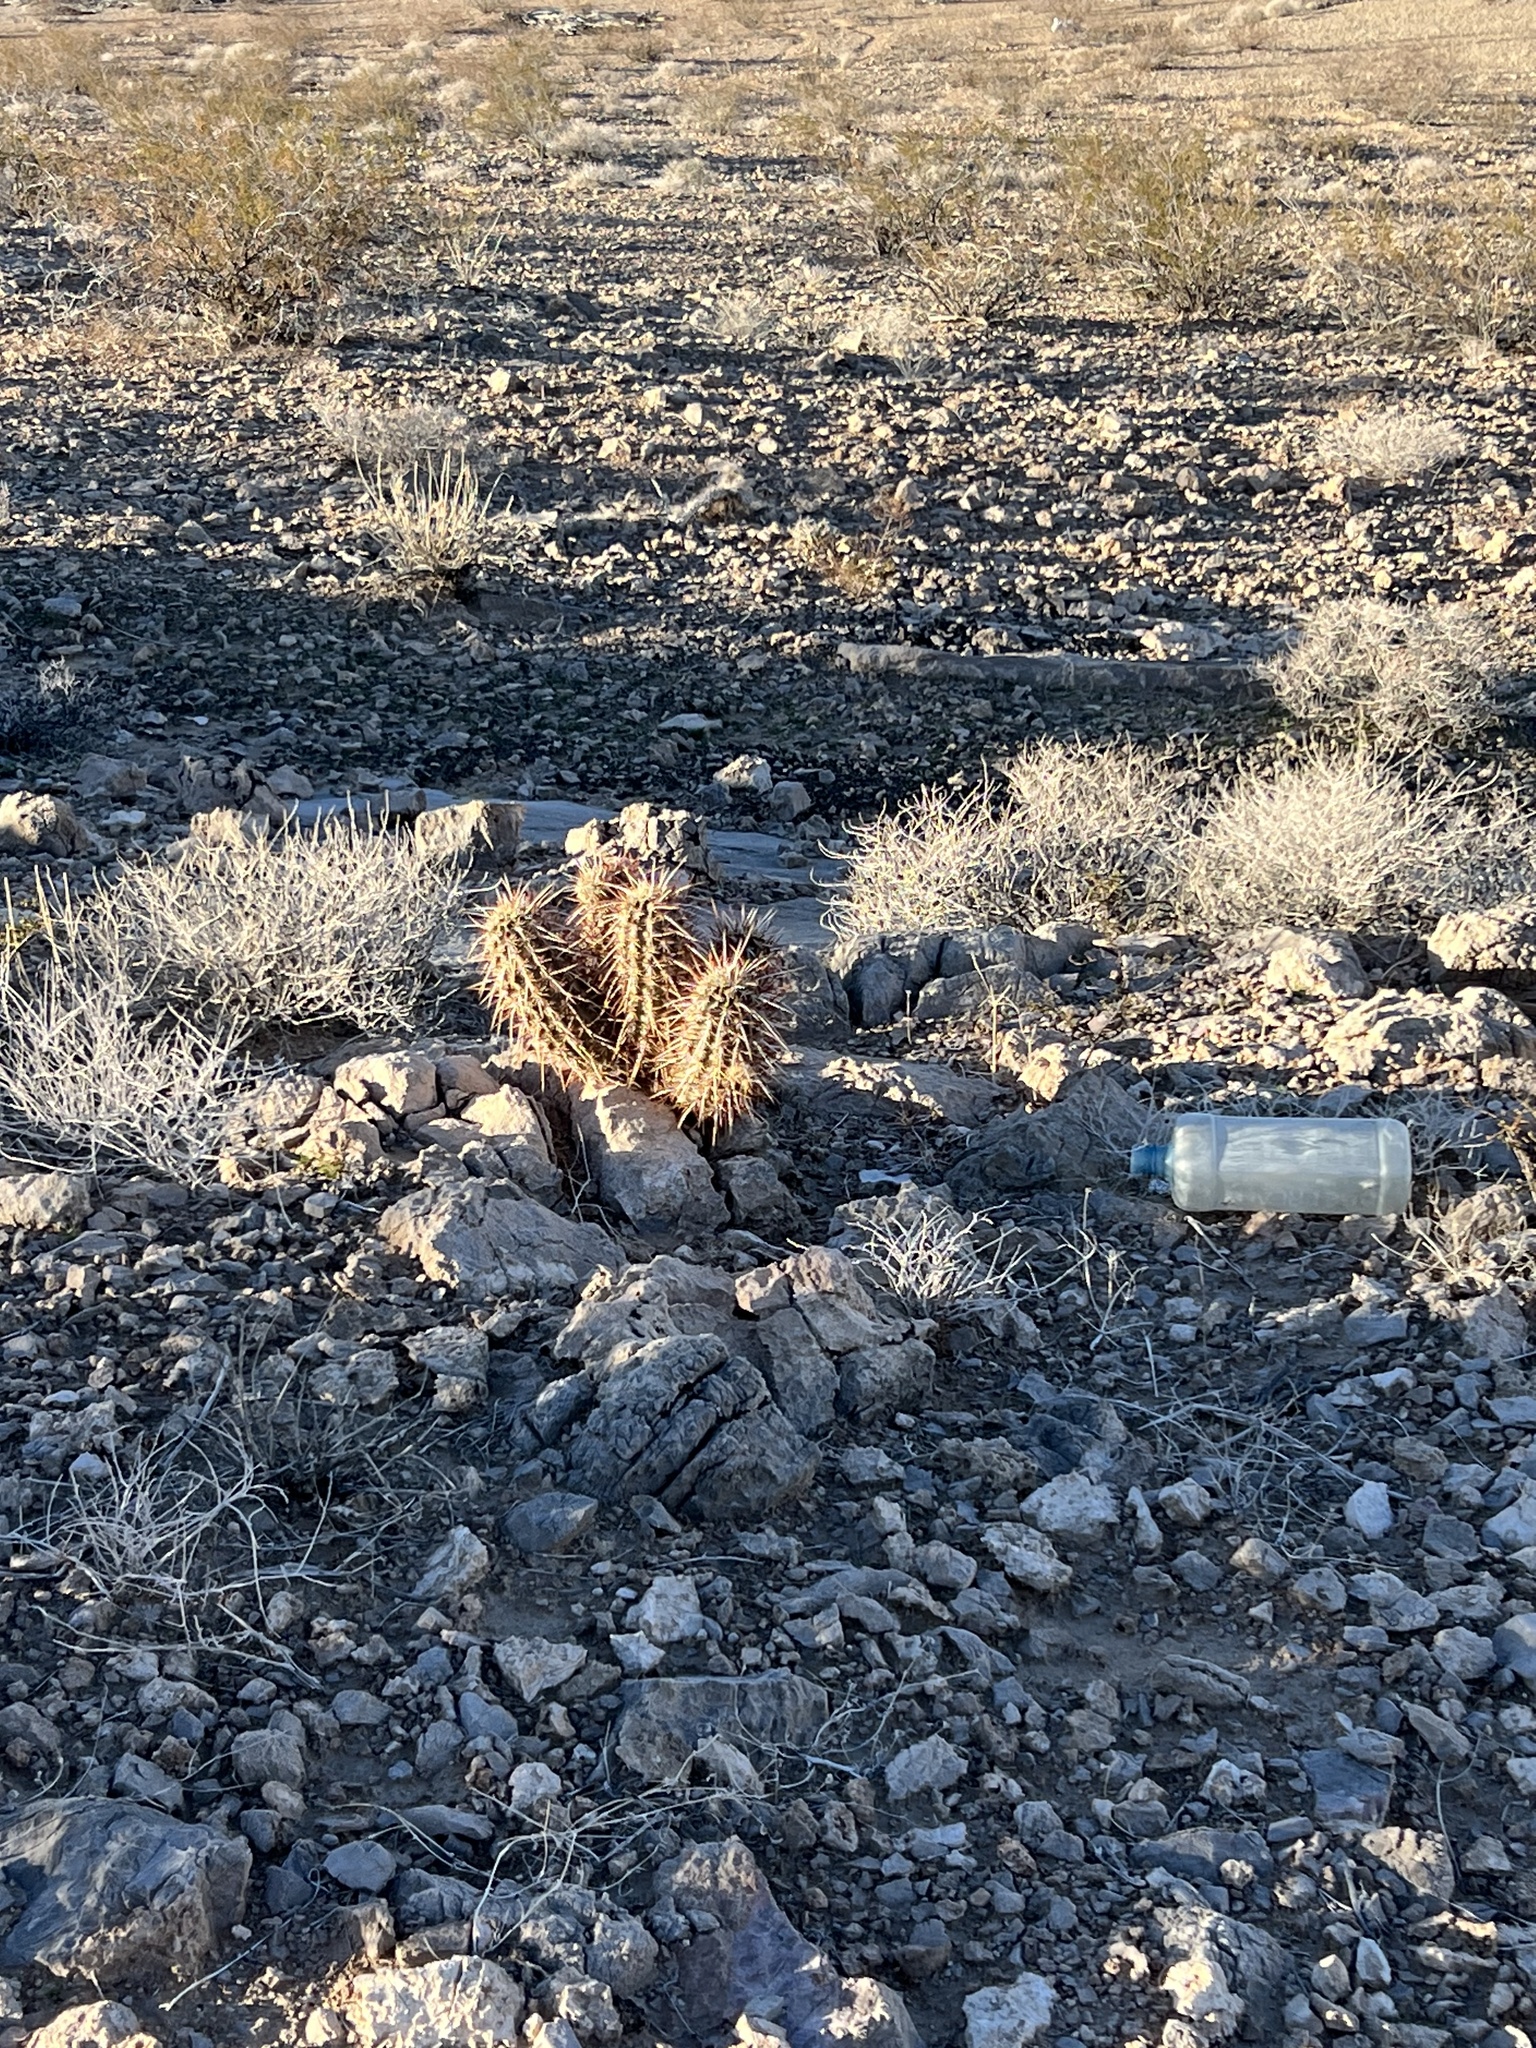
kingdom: Plantae
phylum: Tracheophyta
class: Magnoliopsida
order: Caryophyllales
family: Cactaceae
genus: Echinocereus
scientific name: Echinocereus engelmannii
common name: Engelmann's hedgehog cactus
